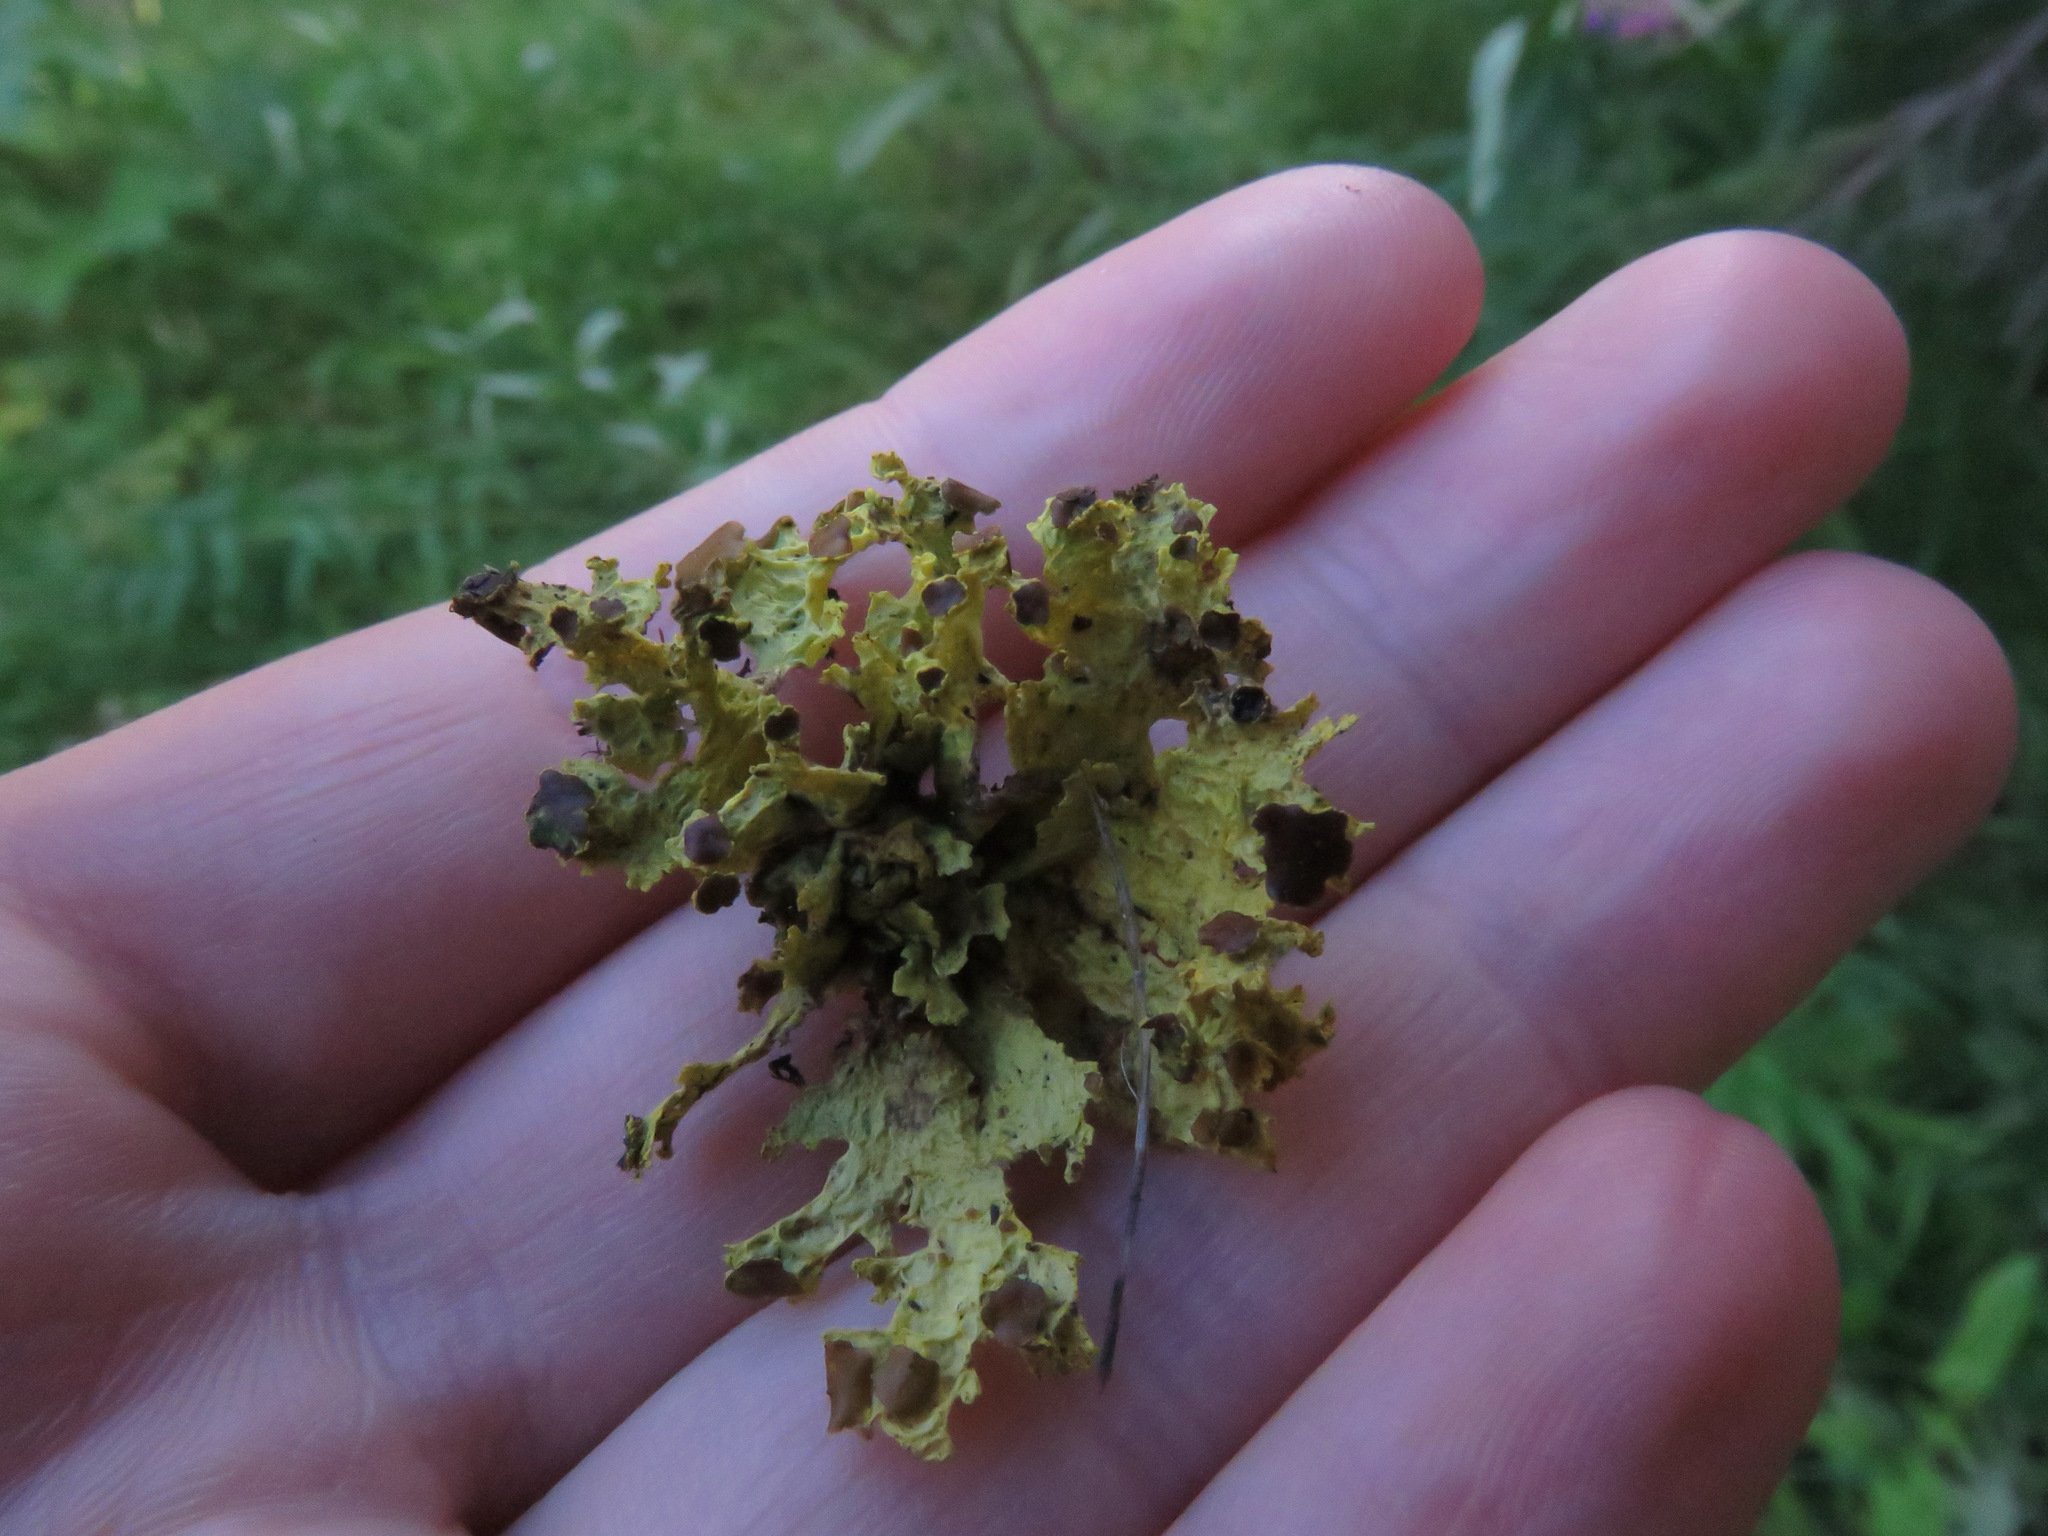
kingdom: Fungi
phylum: Ascomycota
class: Lecanoromycetes
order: Lecanorales
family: Parmeliaceae
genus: Vulpicida
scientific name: Vulpicida canadensis
